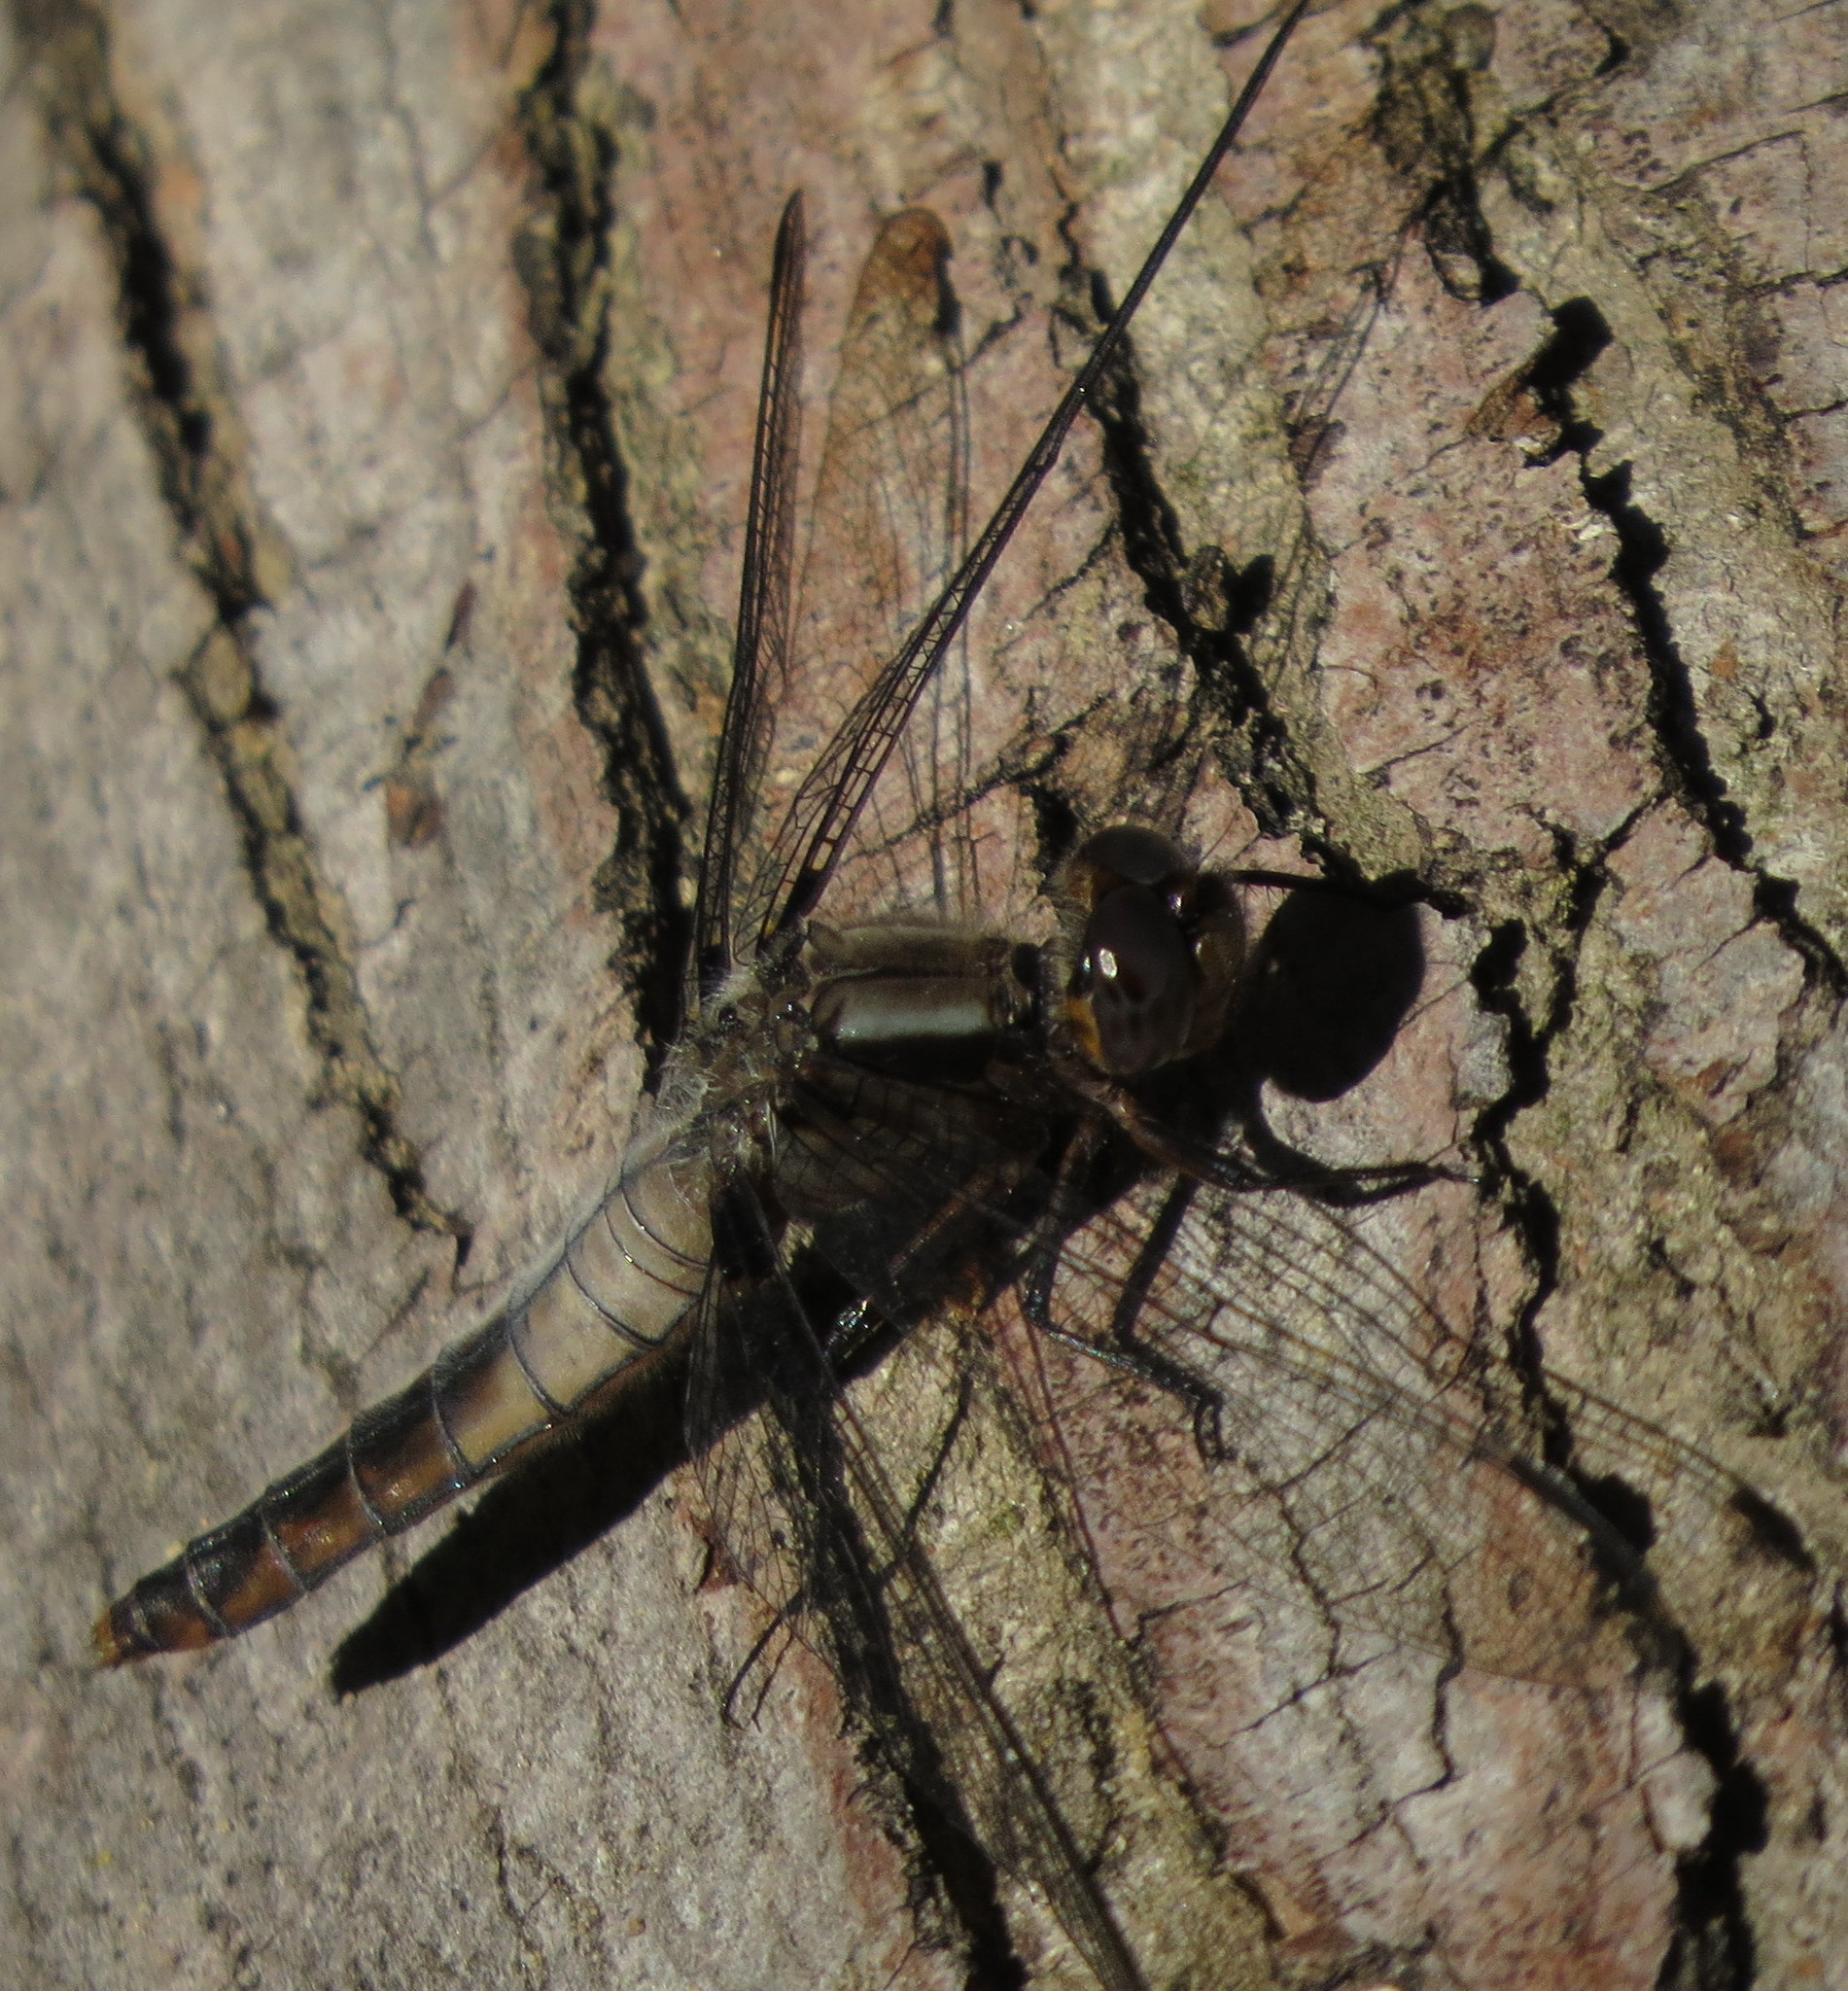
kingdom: Animalia
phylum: Arthropoda
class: Insecta
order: Odonata
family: Libellulidae
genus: Ladona
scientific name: Ladona julia
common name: Chalk-fronted corporal
